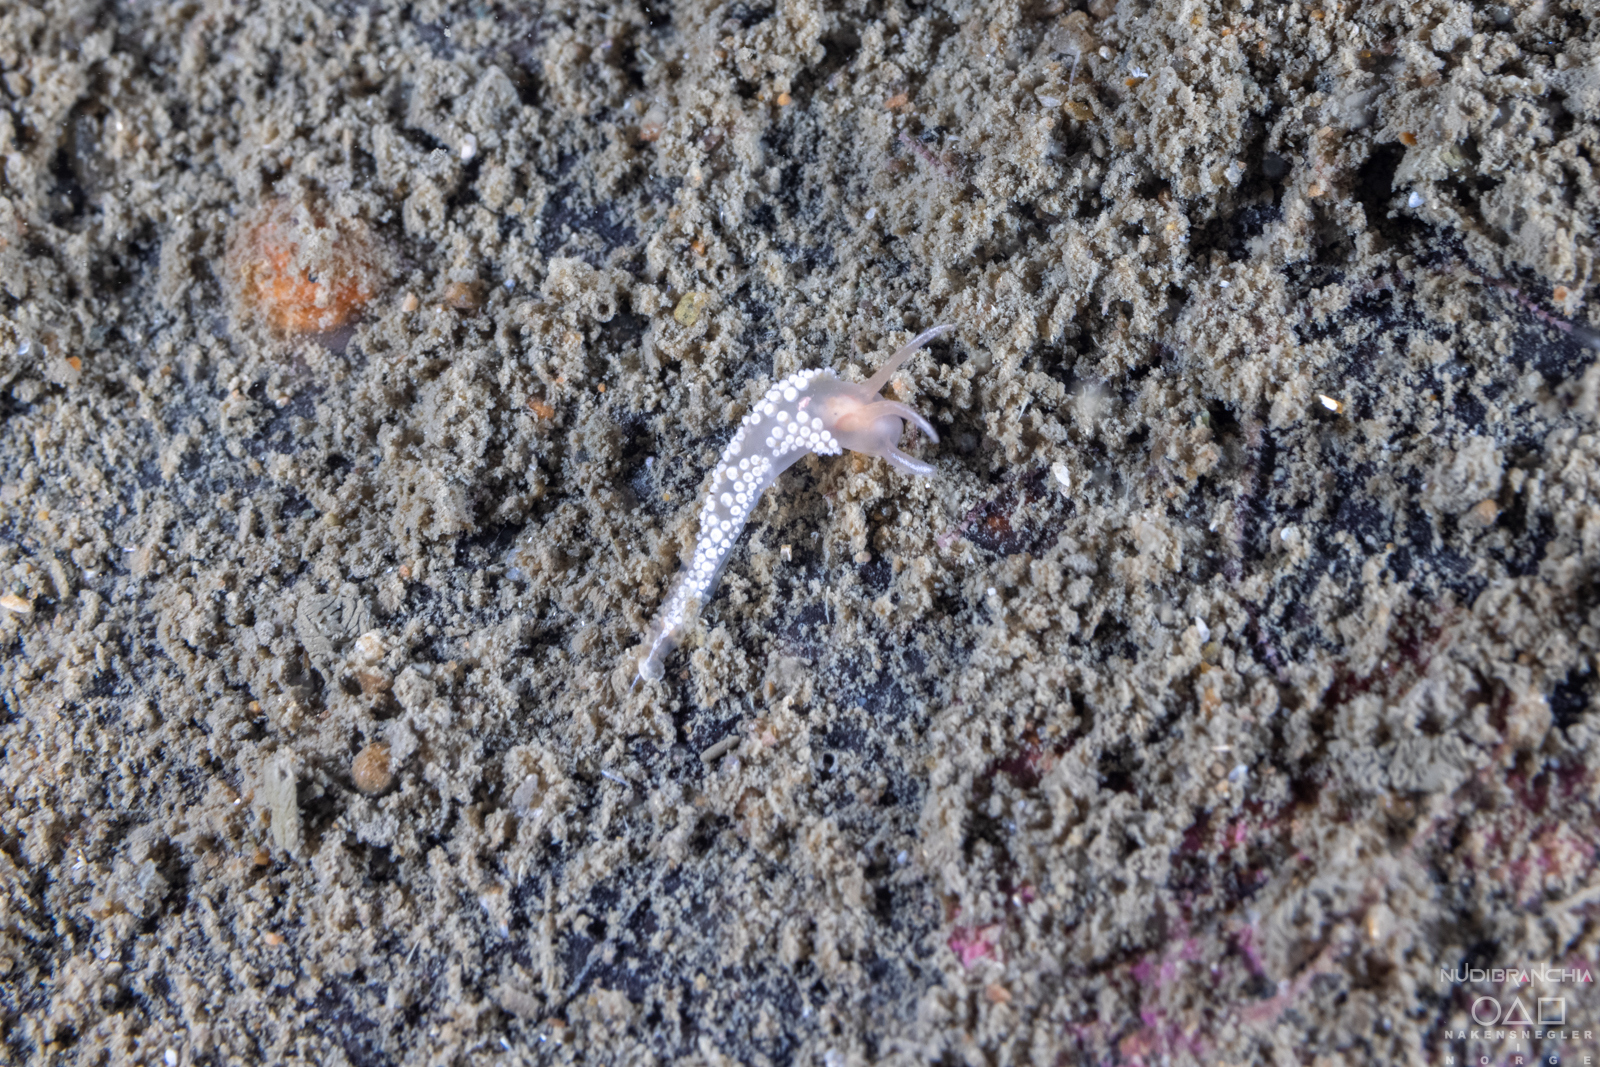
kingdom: Animalia
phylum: Mollusca
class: Gastropoda
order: Nudibranchia
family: Coryphellidae
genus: Coryphella
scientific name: Coryphella verrucosa
